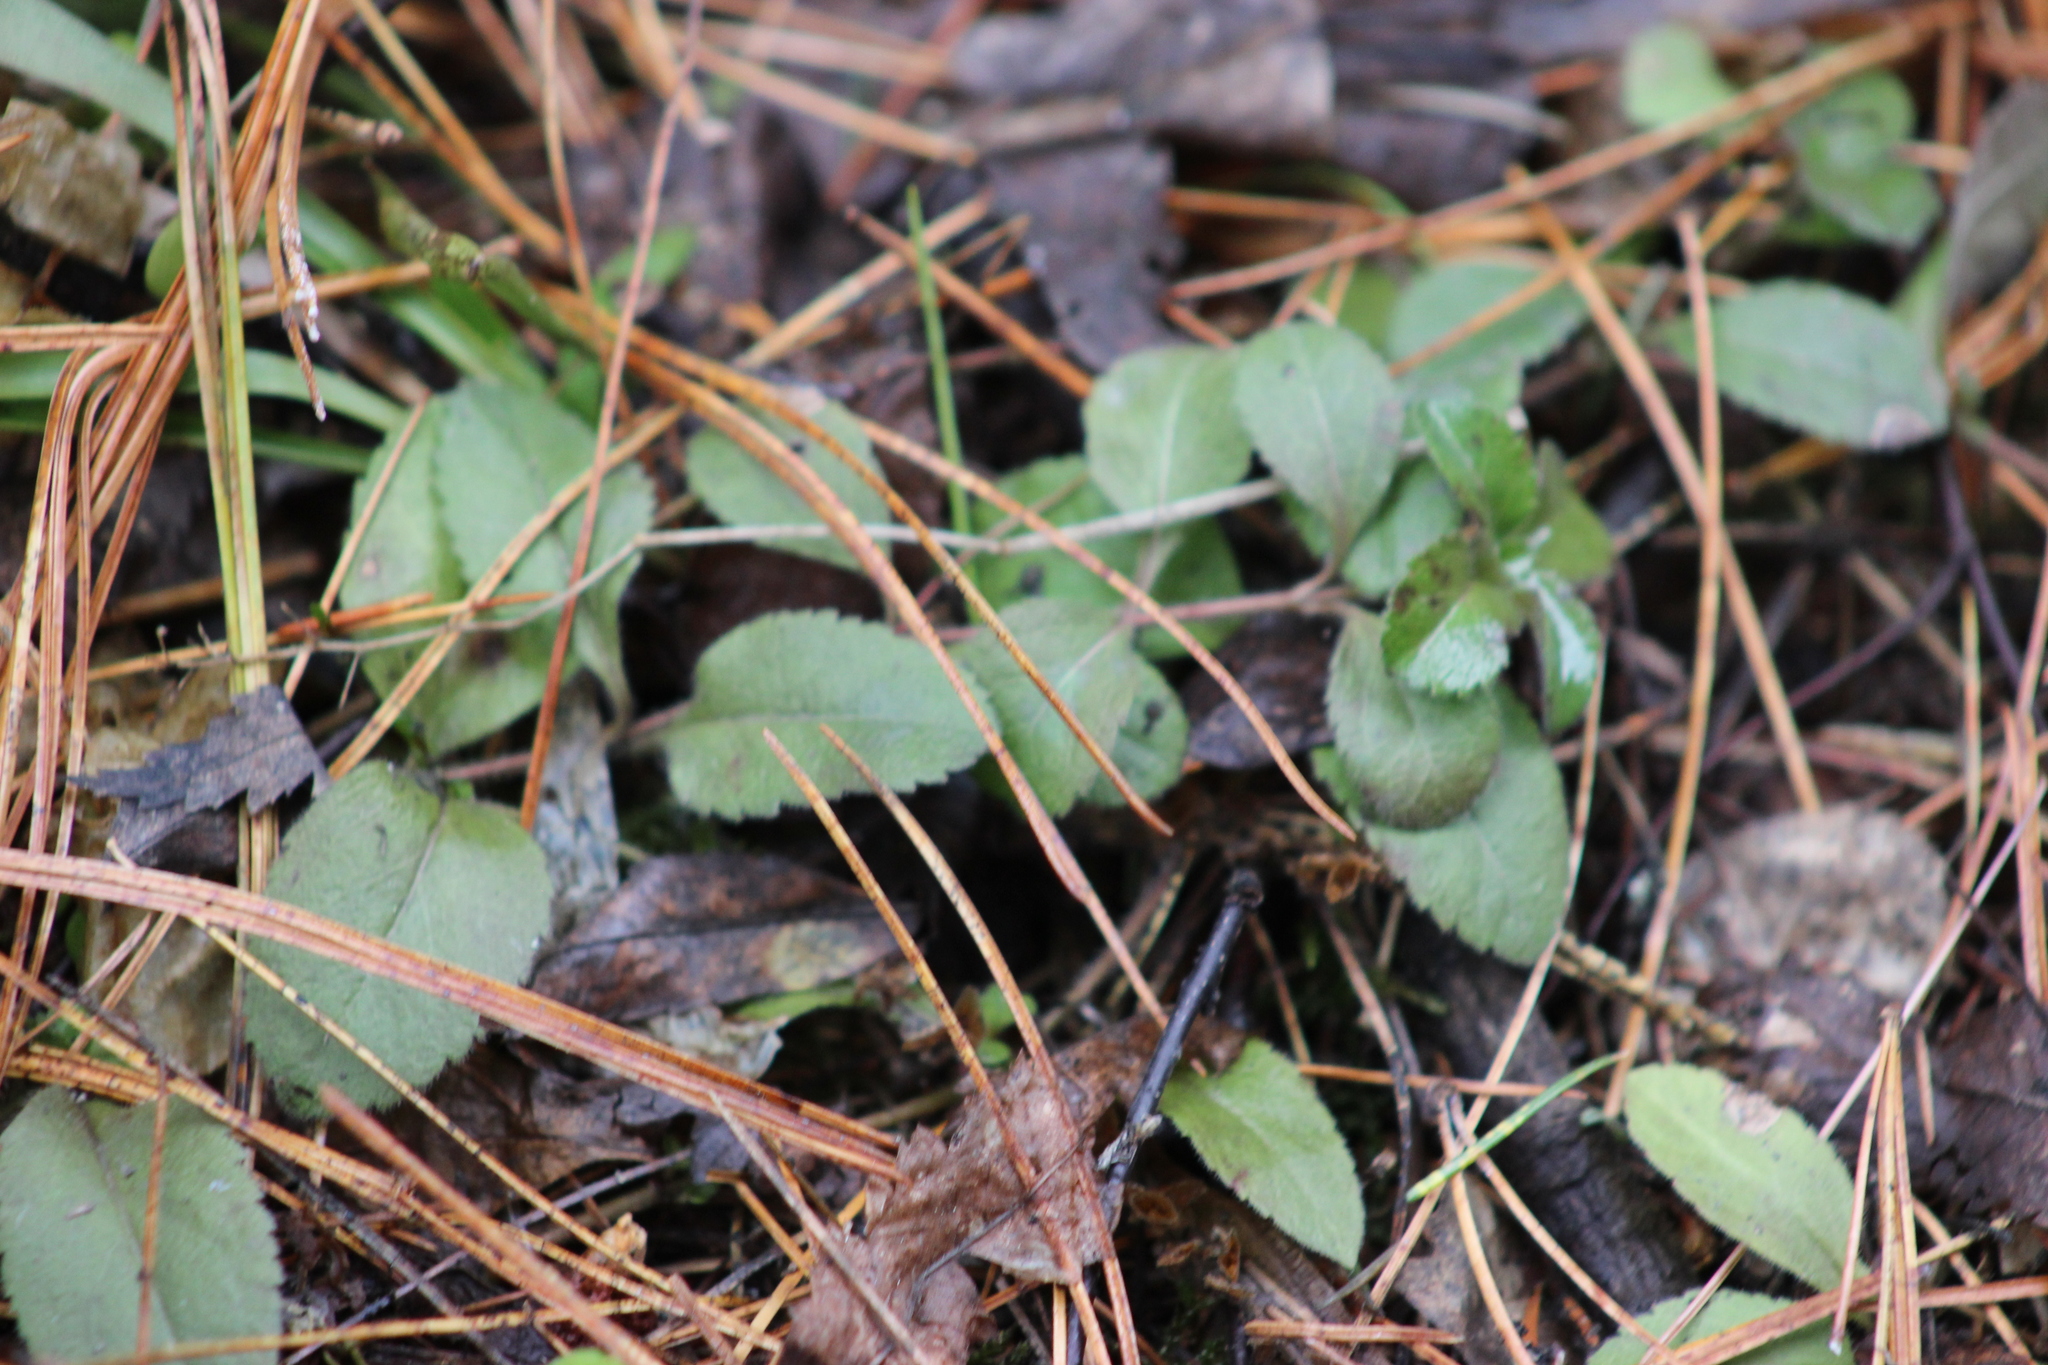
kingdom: Plantae
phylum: Tracheophyta
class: Magnoliopsida
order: Lamiales
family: Plantaginaceae
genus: Veronica
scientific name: Veronica officinalis
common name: Common speedwell
